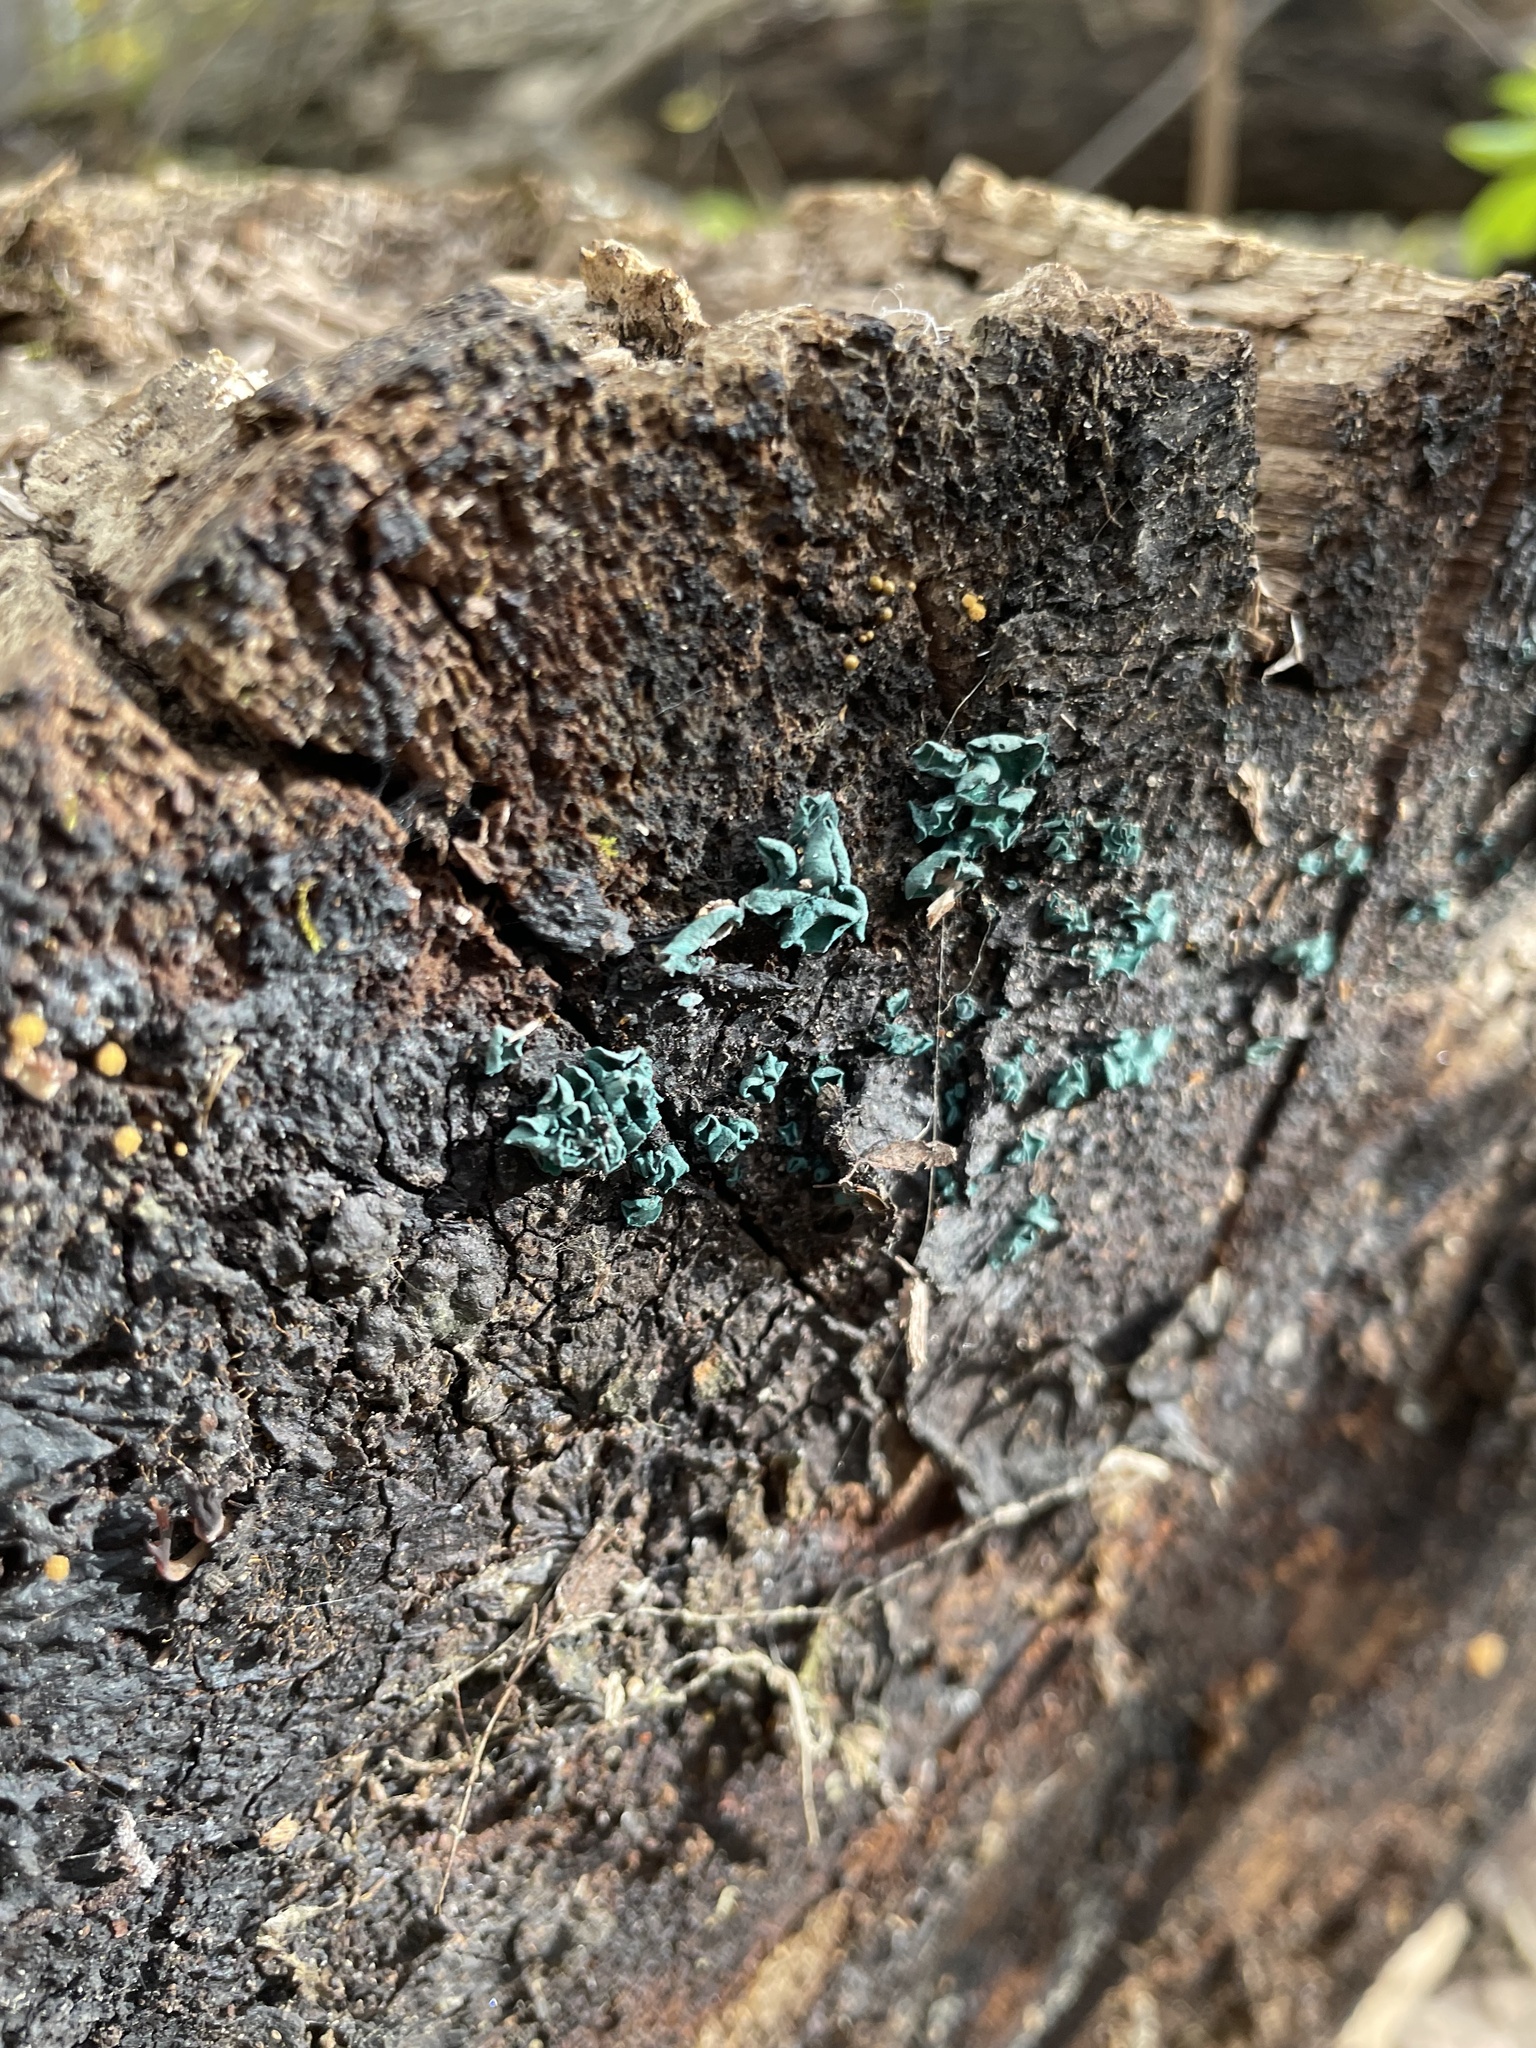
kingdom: Fungi
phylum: Ascomycota
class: Leotiomycetes
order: Helotiales
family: Chlorociboriaceae
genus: Chlorociboria
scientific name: Chlorociboria aeruginascens
